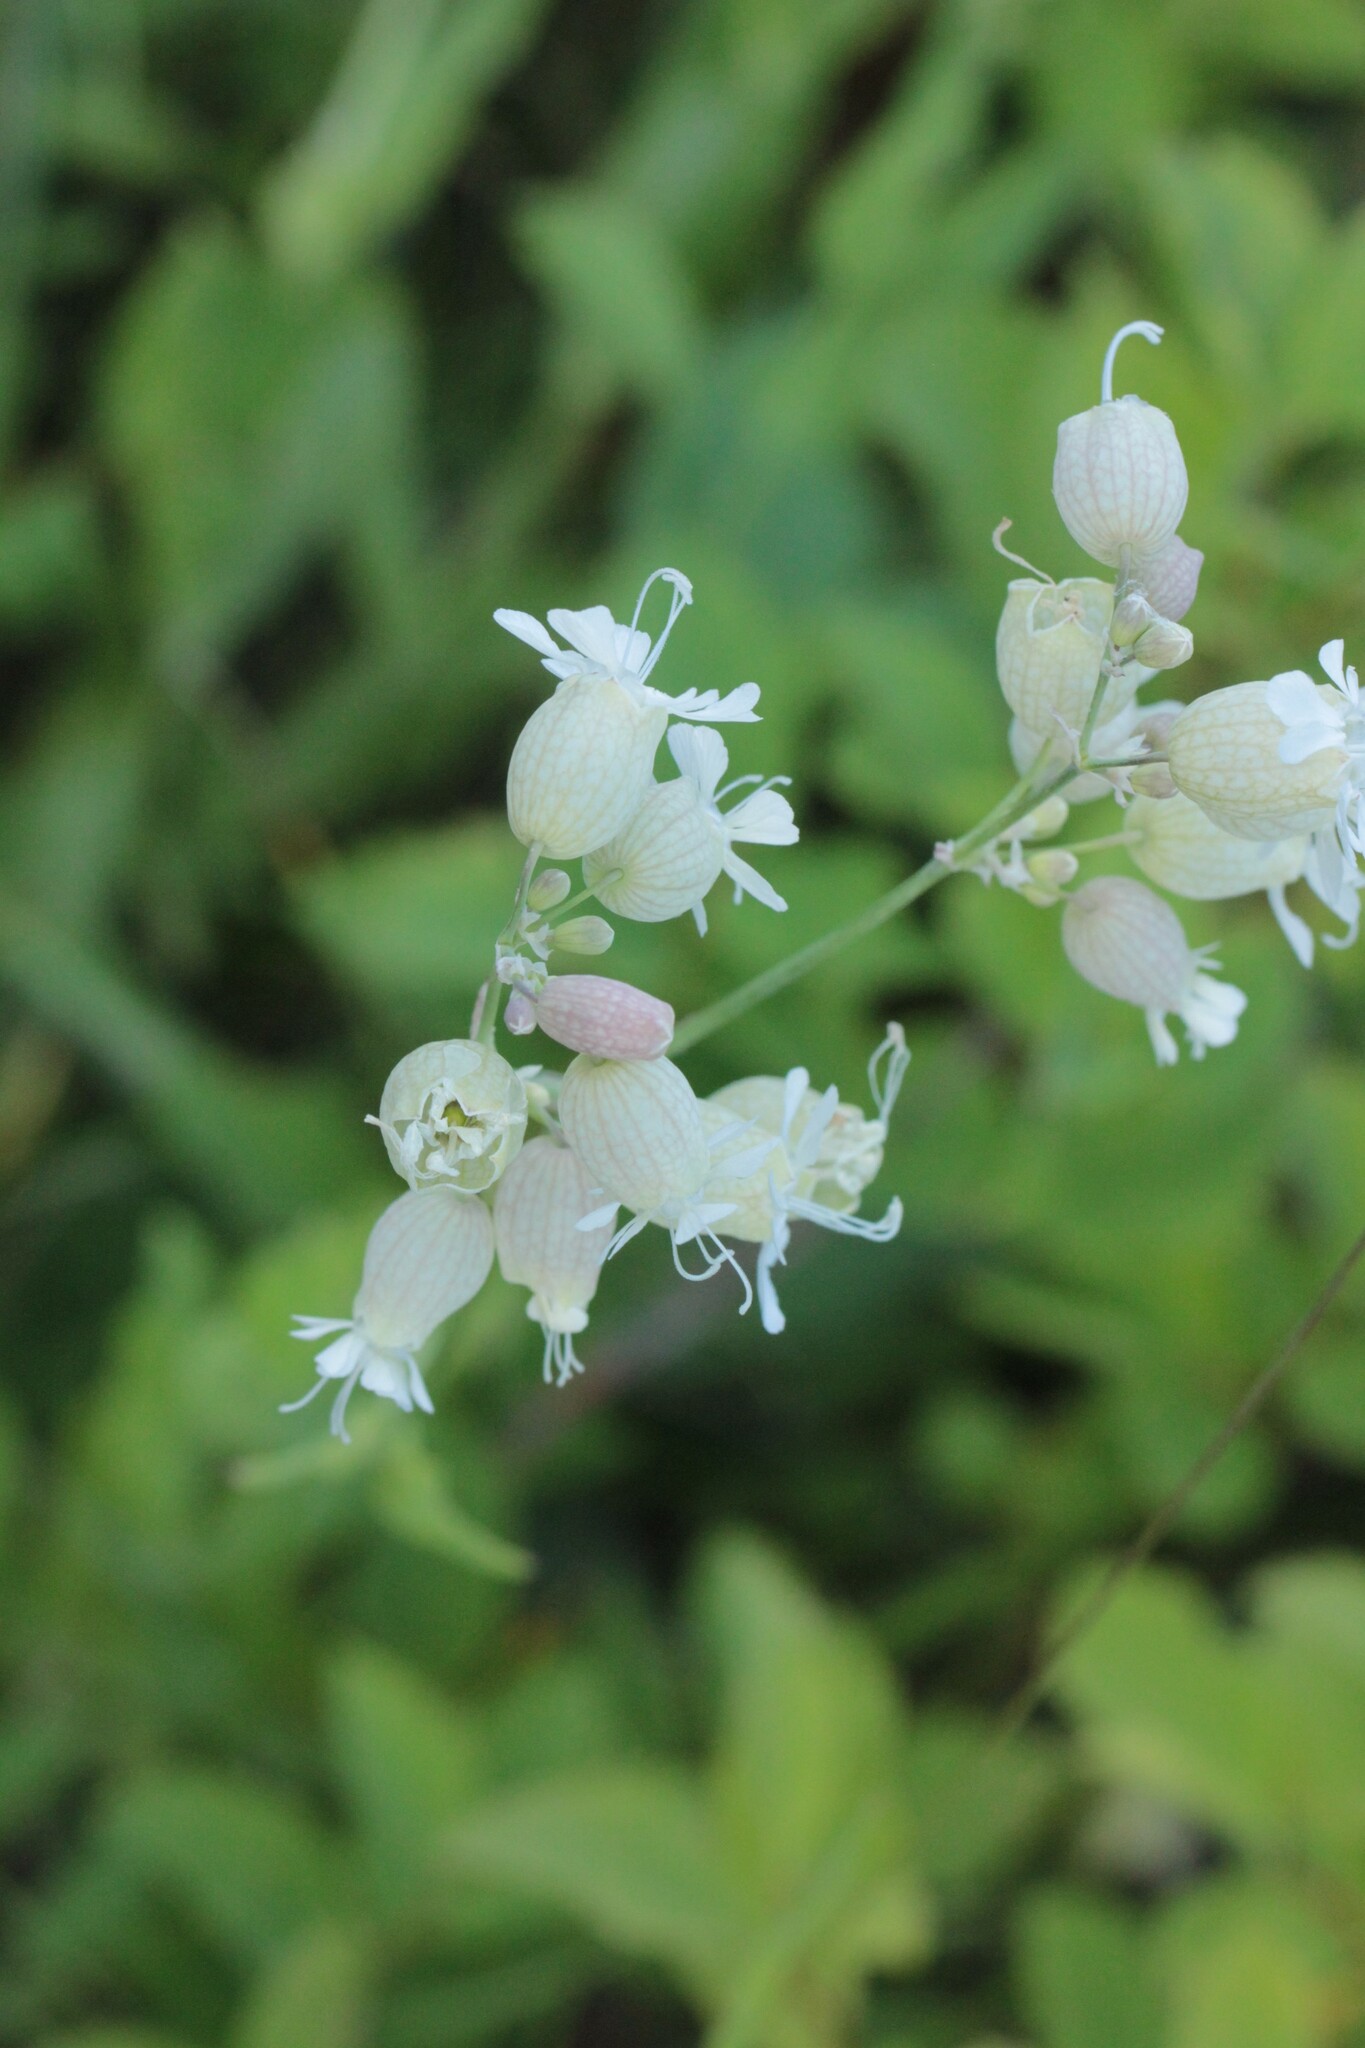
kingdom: Plantae
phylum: Tracheophyta
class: Magnoliopsida
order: Caryophyllales
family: Caryophyllaceae
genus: Silene
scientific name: Silene vulgaris
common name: Bladder campion
